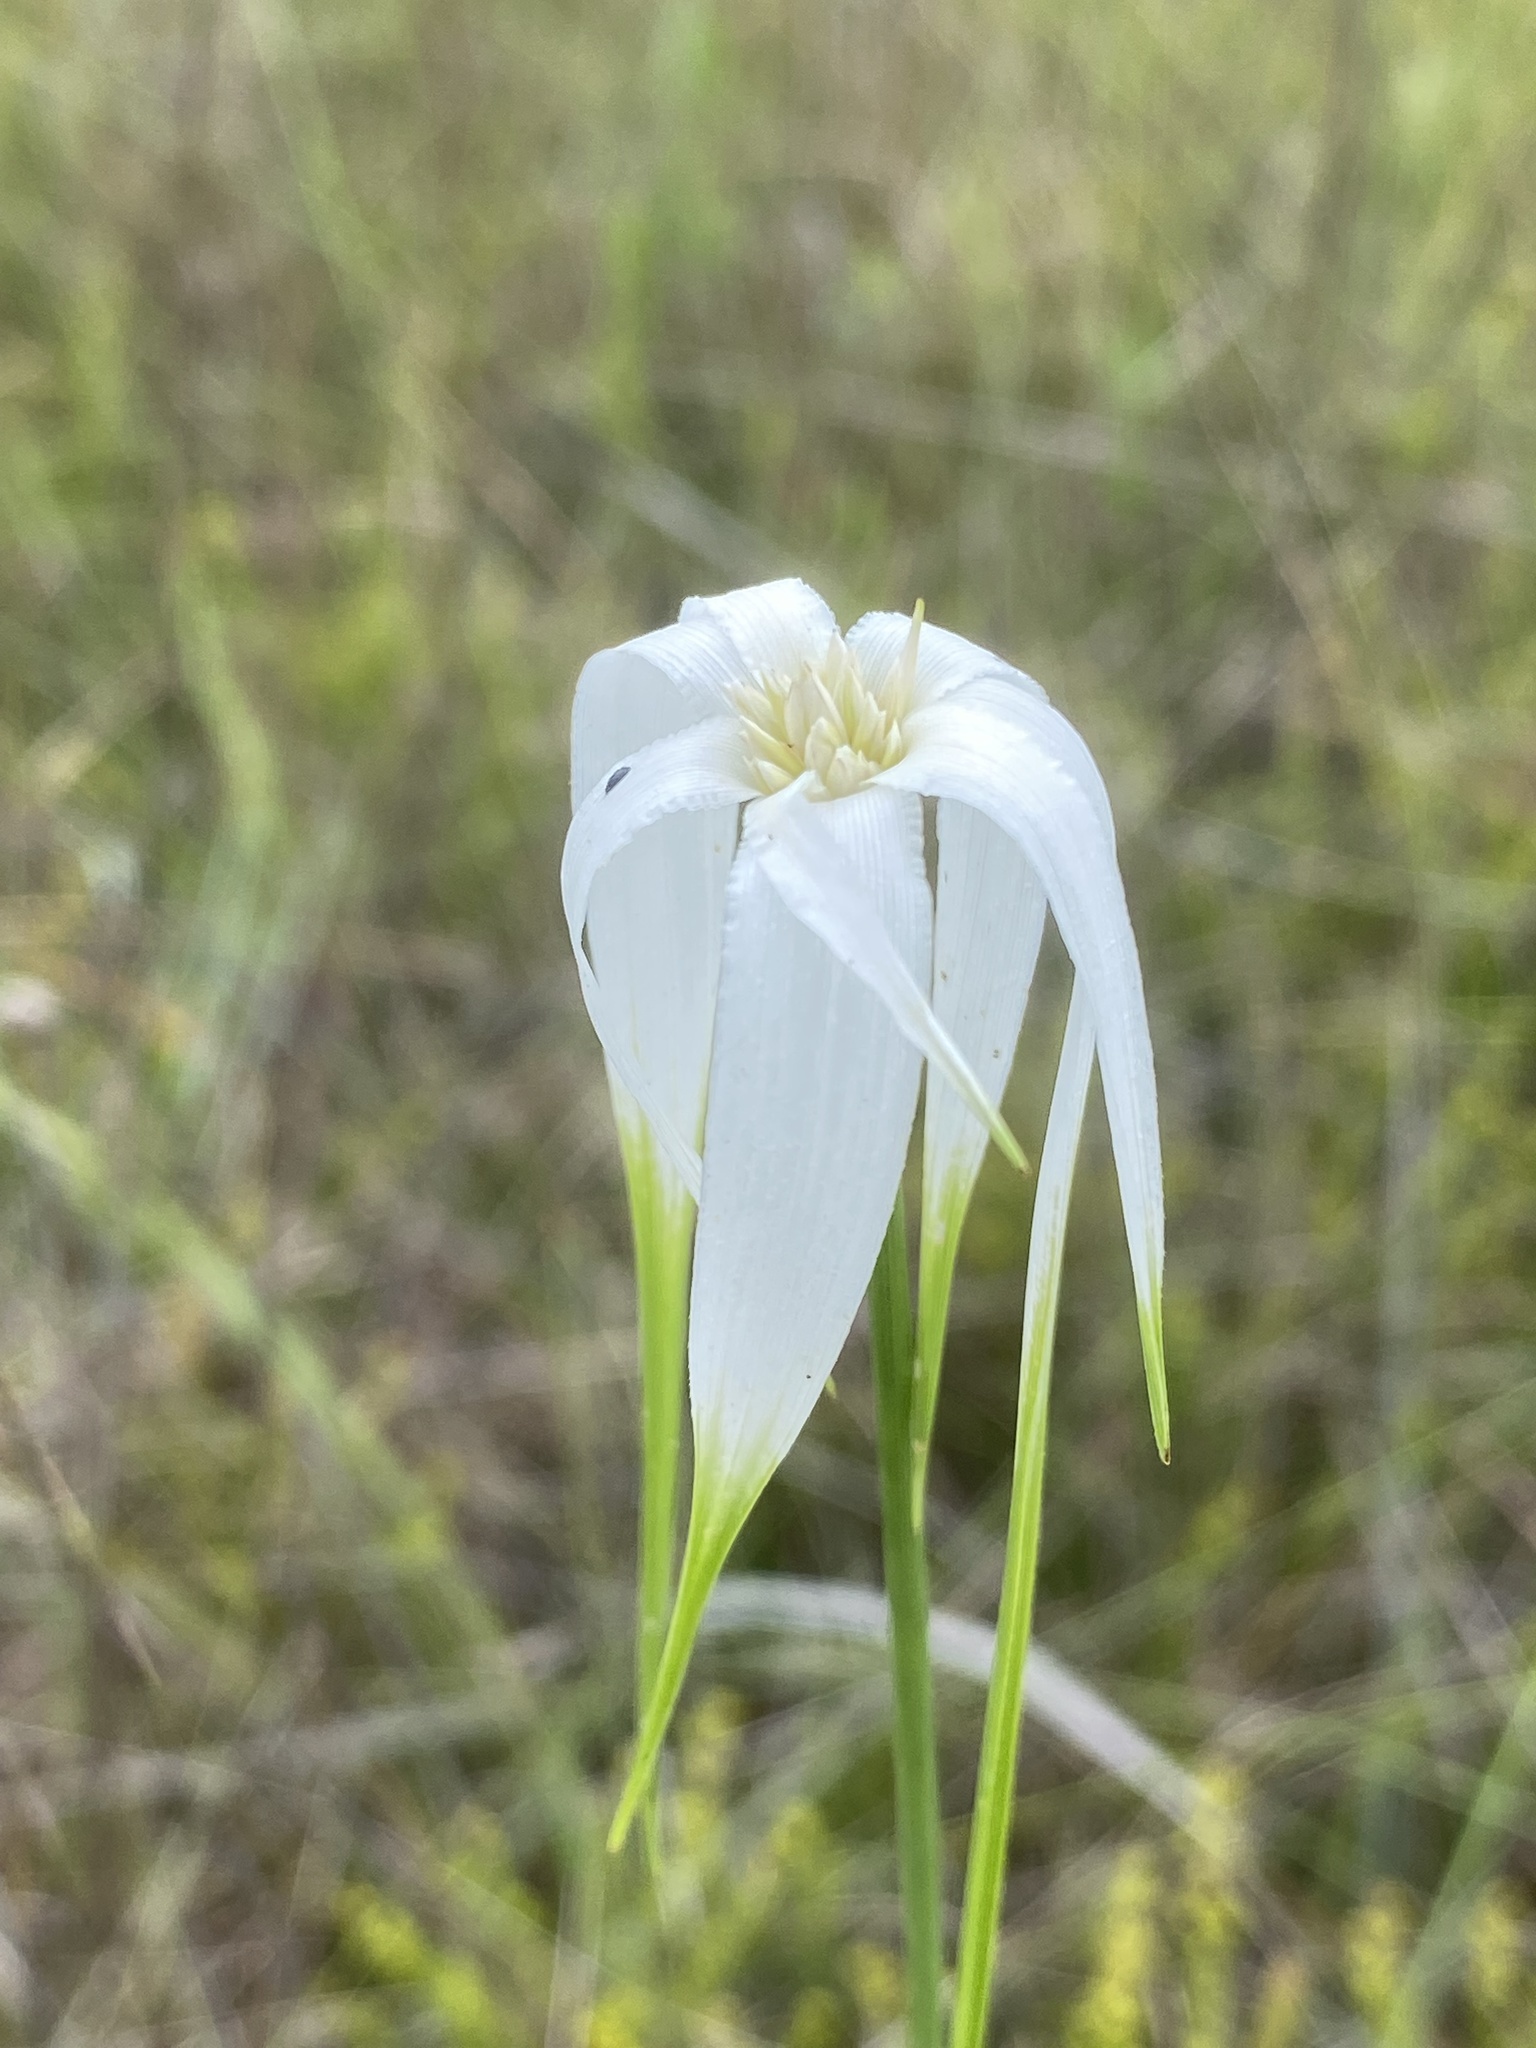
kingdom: Plantae
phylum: Tracheophyta
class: Liliopsida
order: Poales
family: Cyperaceae
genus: Rhynchospora
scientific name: Rhynchospora latifolia
